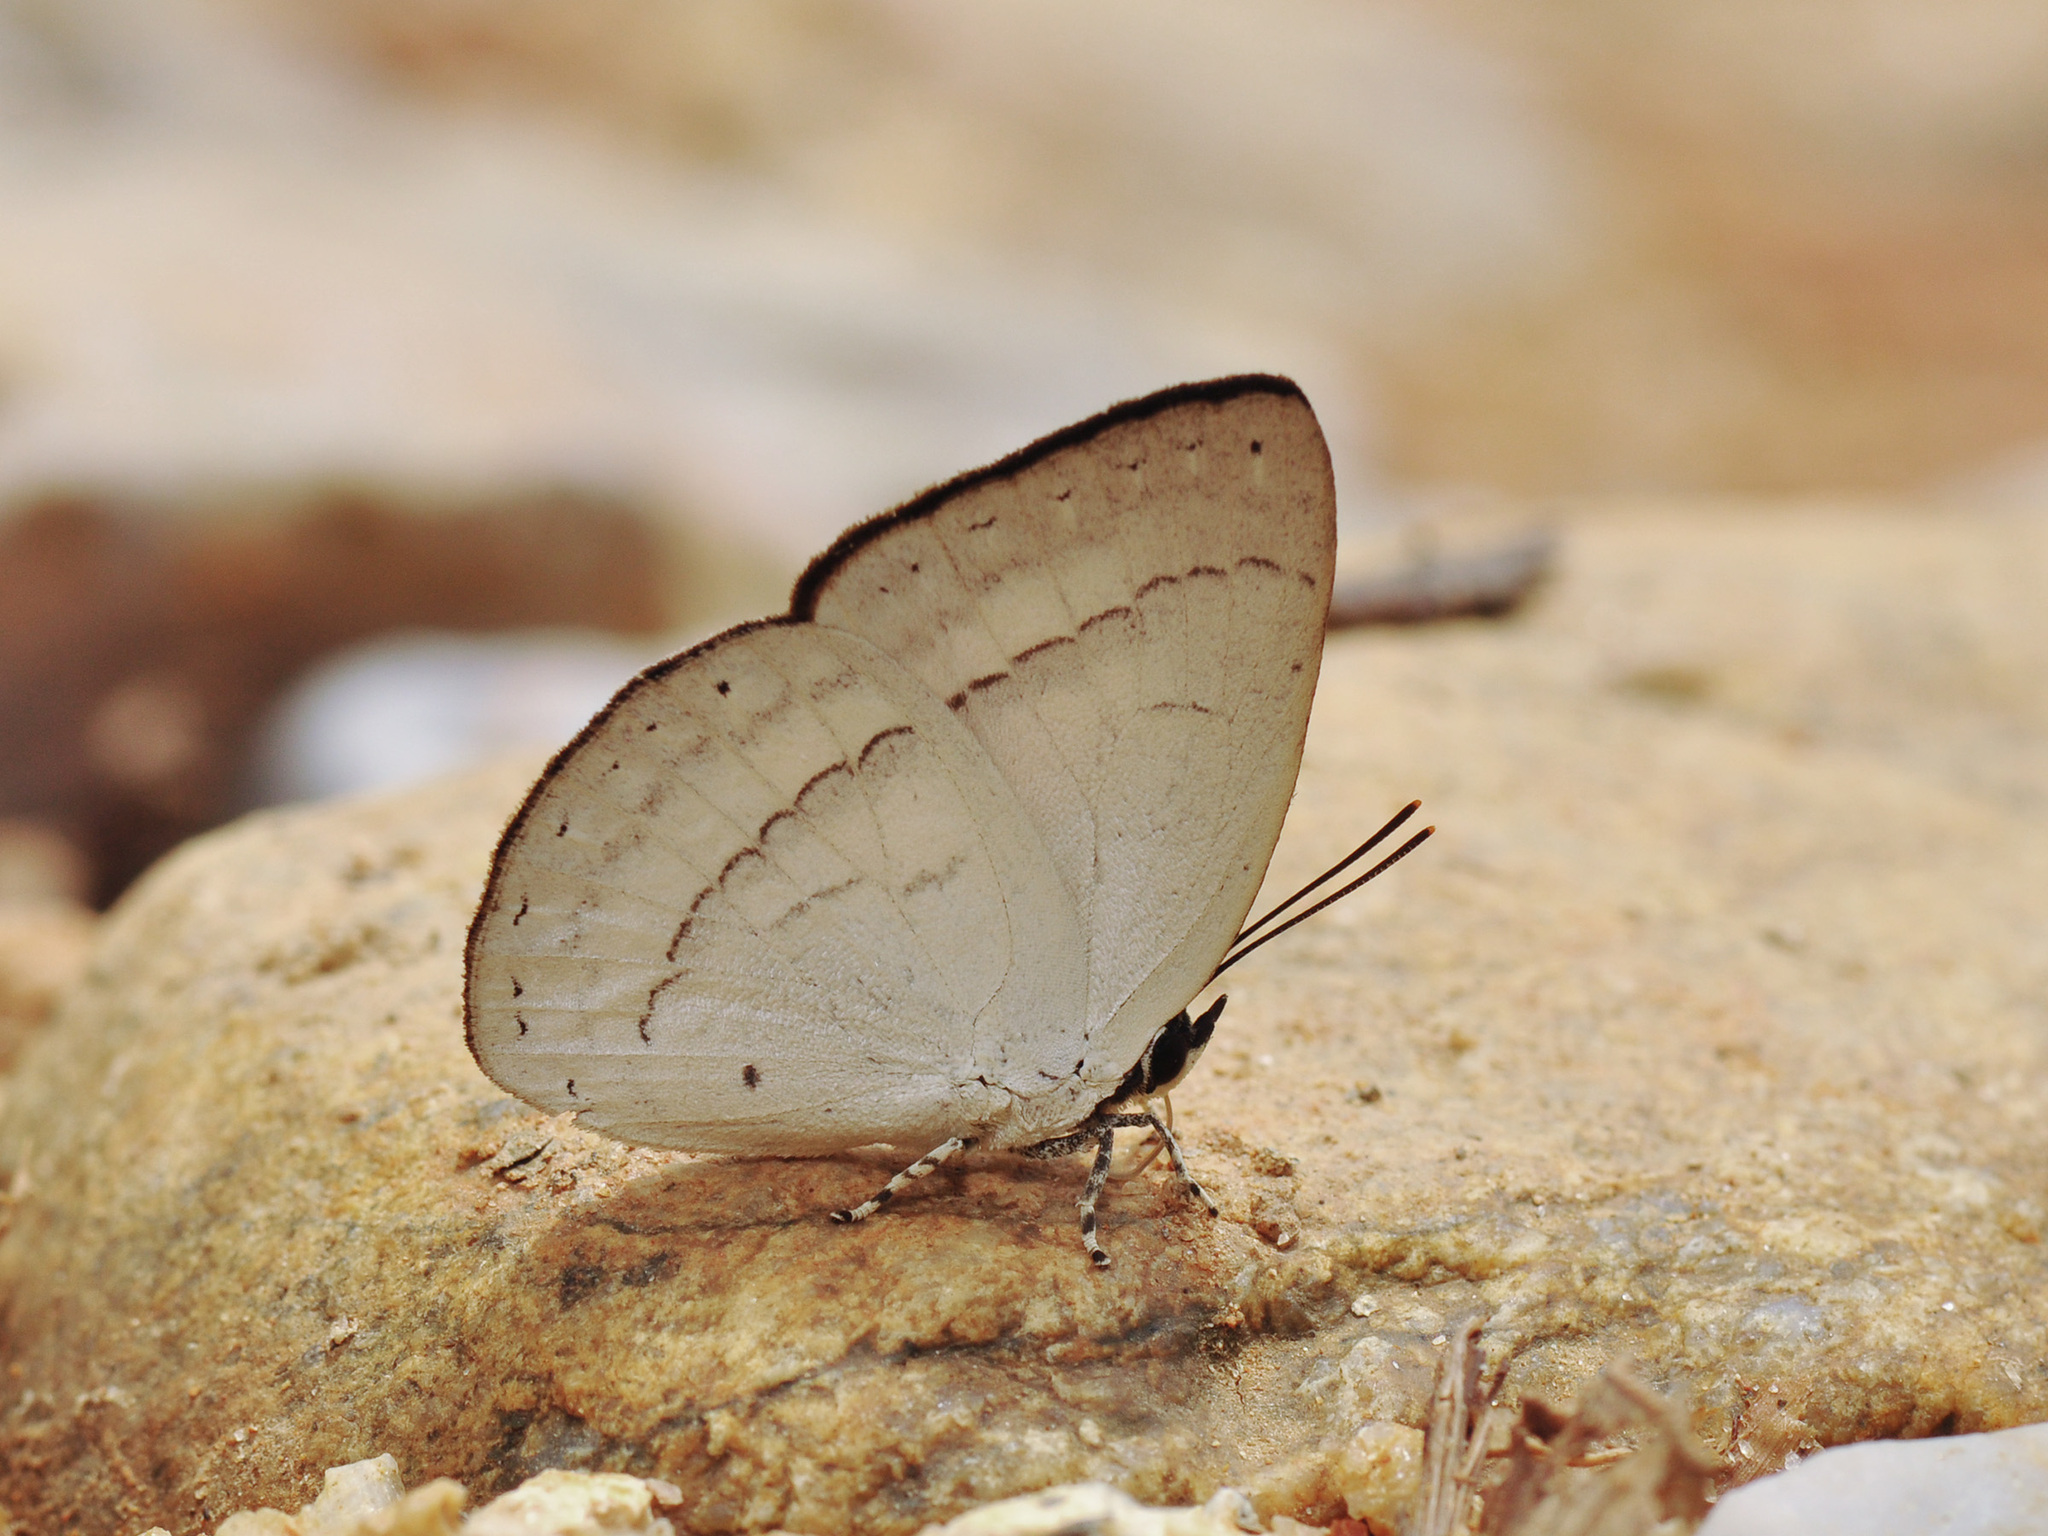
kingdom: Animalia
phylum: Arthropoda
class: Insecta
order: Lepidoptera
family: Lycaenidae
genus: Curetis
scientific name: Curetis freda
